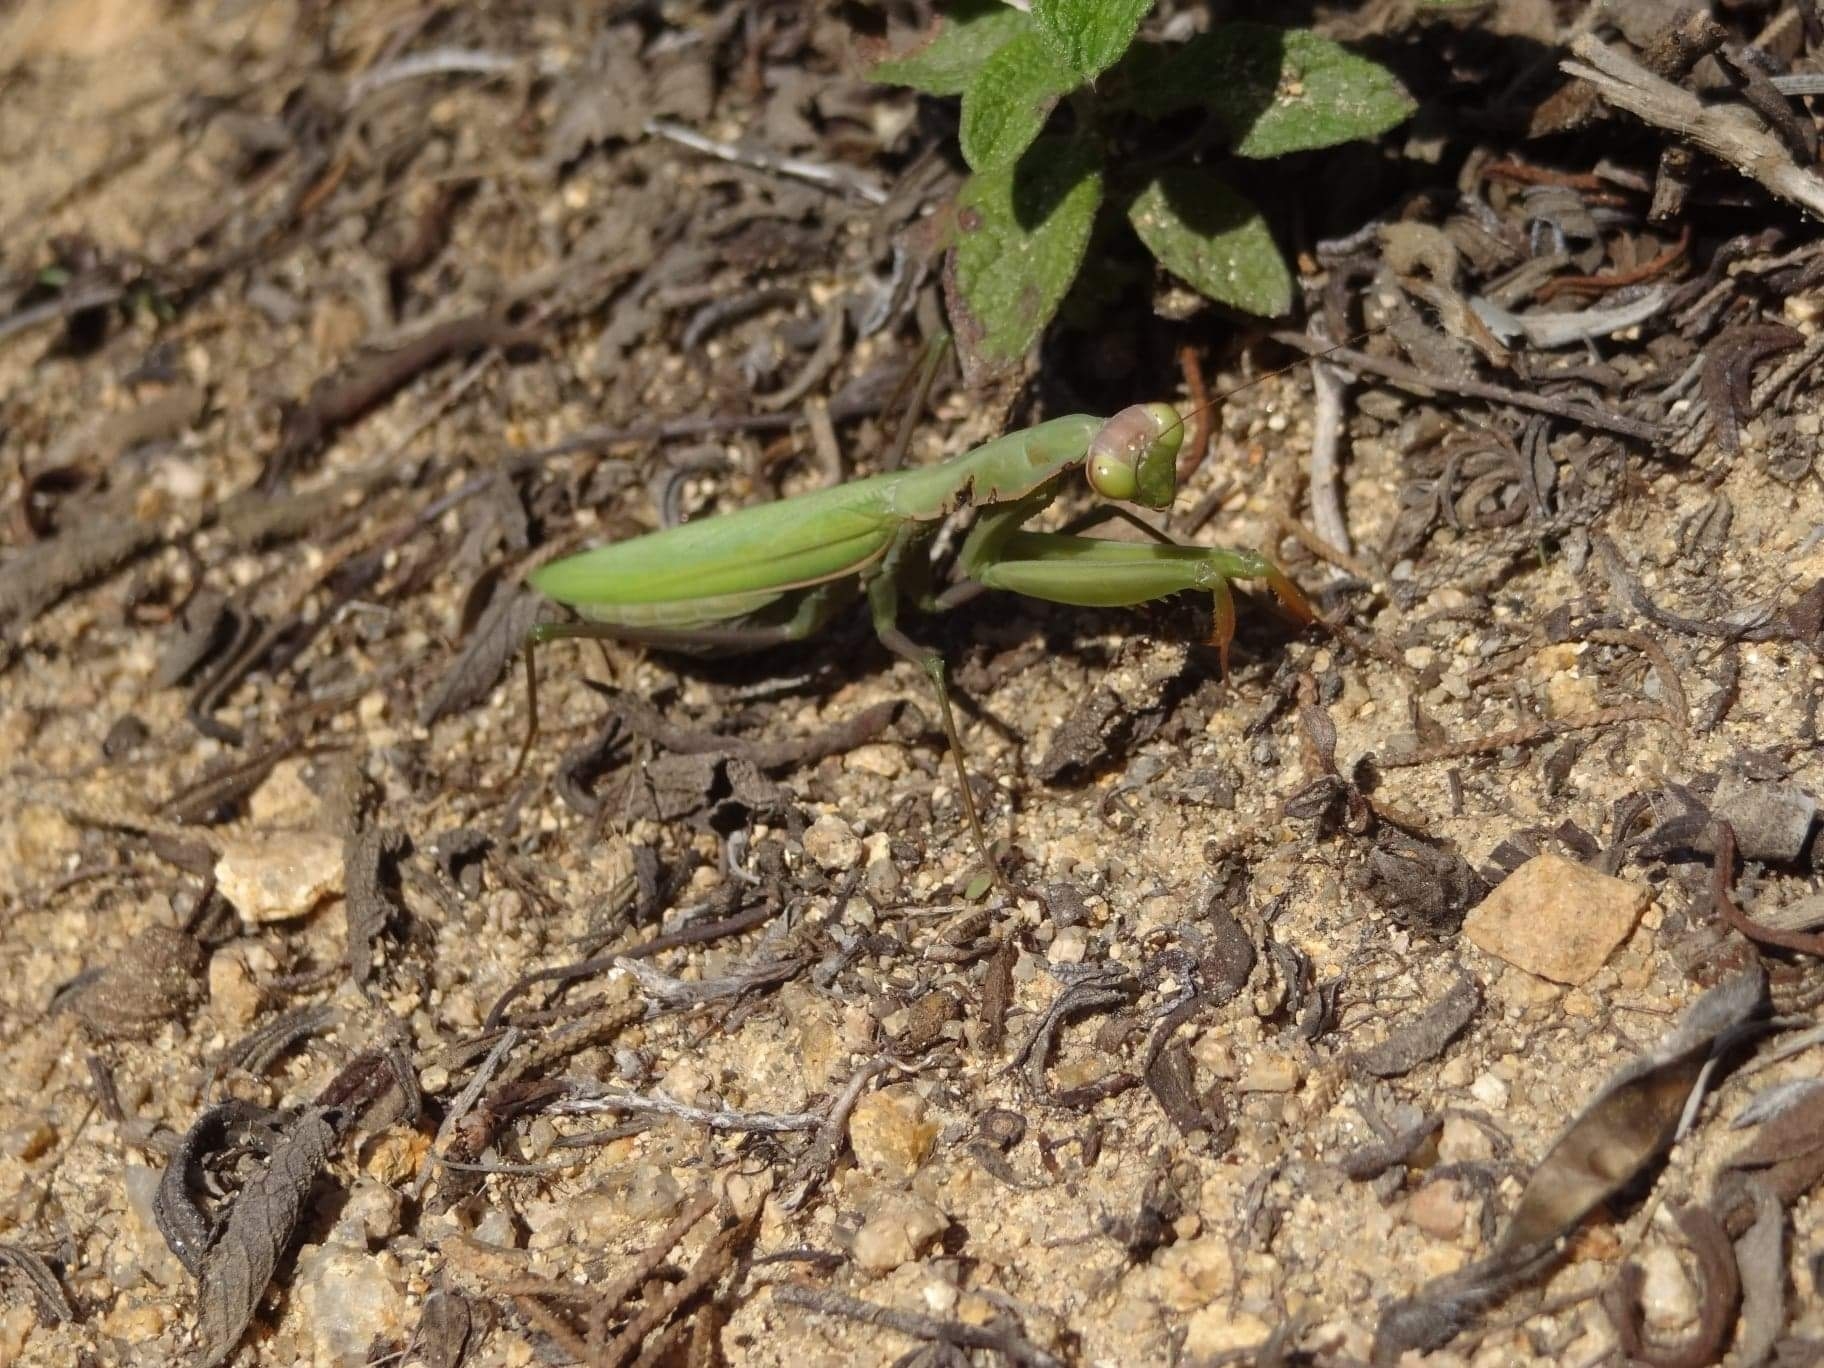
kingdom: Animalia
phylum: Arthropoda
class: Insecta
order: Mantodea
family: Mantidae
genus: Mantis
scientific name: Mantis religiosa
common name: Praying mantis
